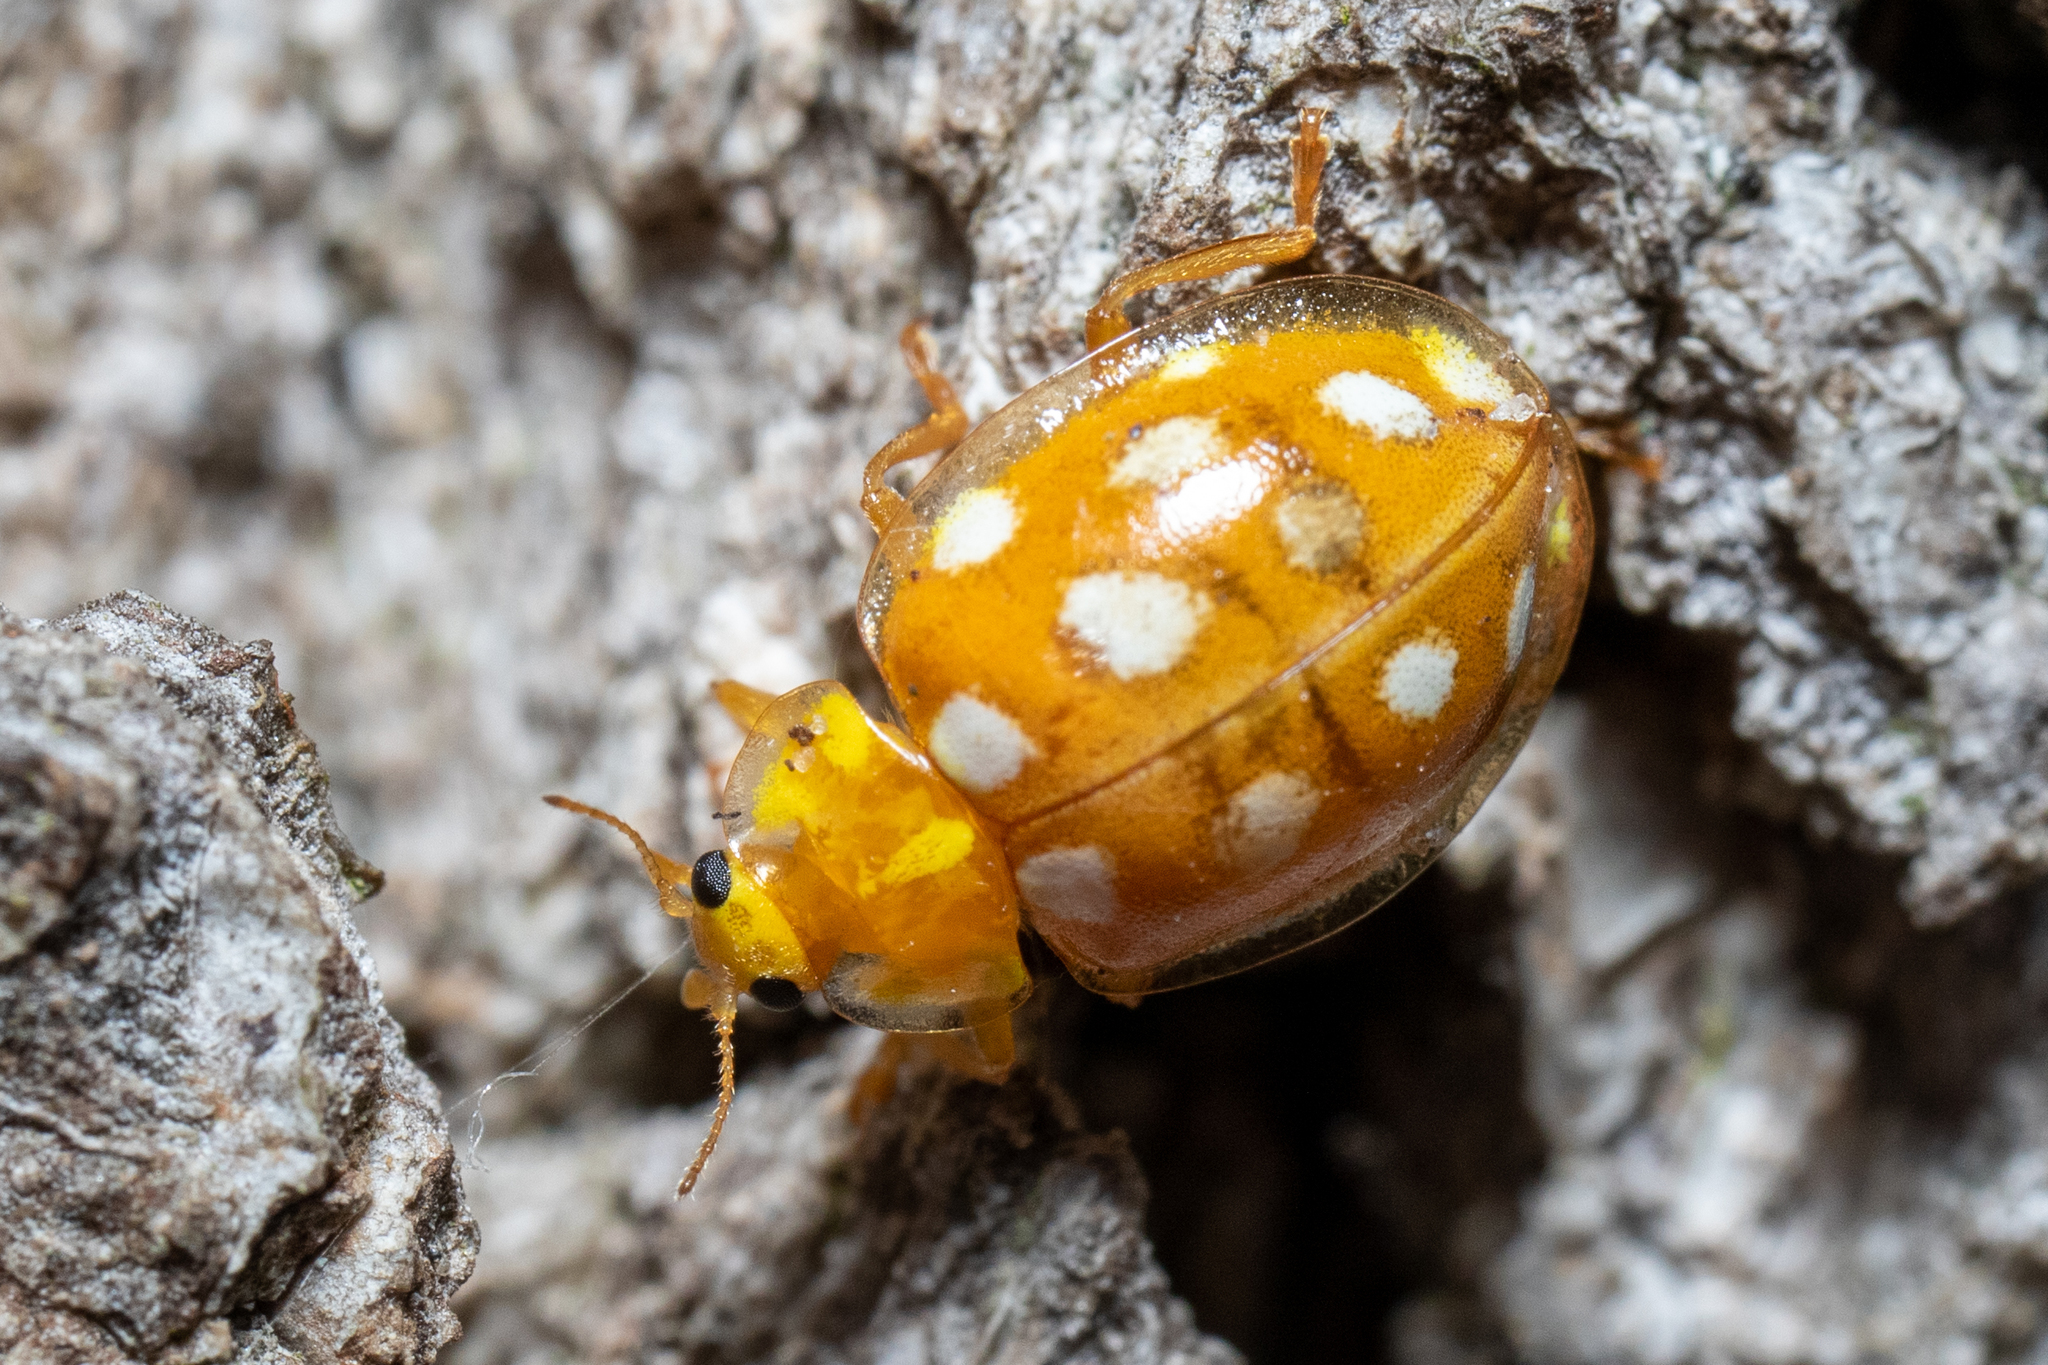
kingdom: Animalia
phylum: Arthropoda
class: Insecta
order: Coleoptera
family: Coccinellidae
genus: Halyzia
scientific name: Halyzia sedecimguttata
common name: Orange ladybird
